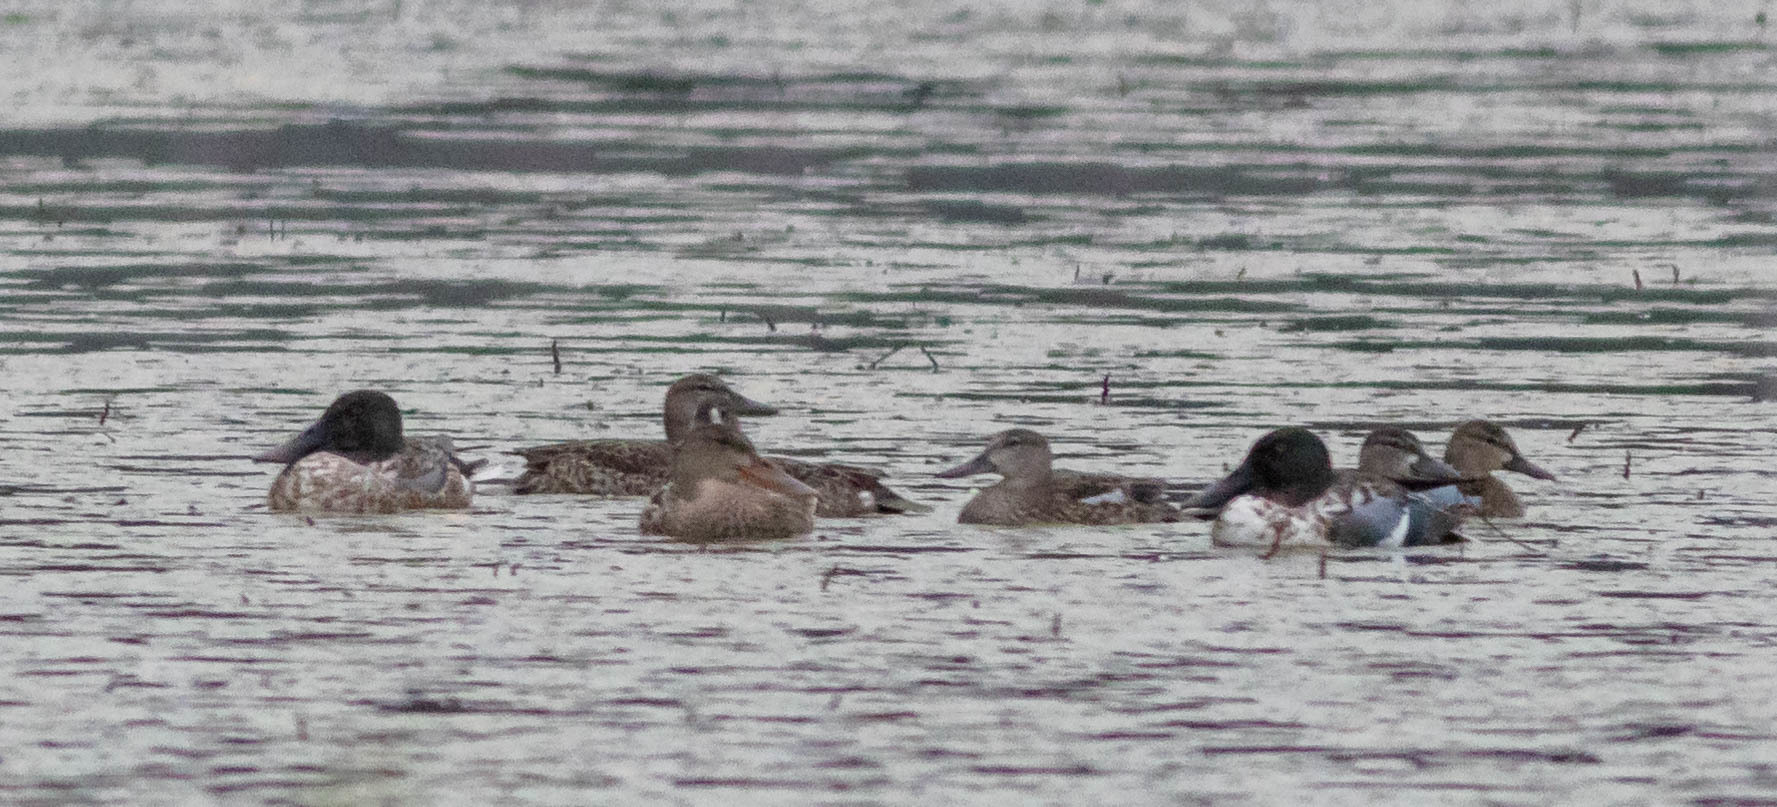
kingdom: Animalia
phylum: Chordata
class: Aves
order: Anseriformes
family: Anatidae
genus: Spatula
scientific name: Spatula clypeata
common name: Northern shoveler
